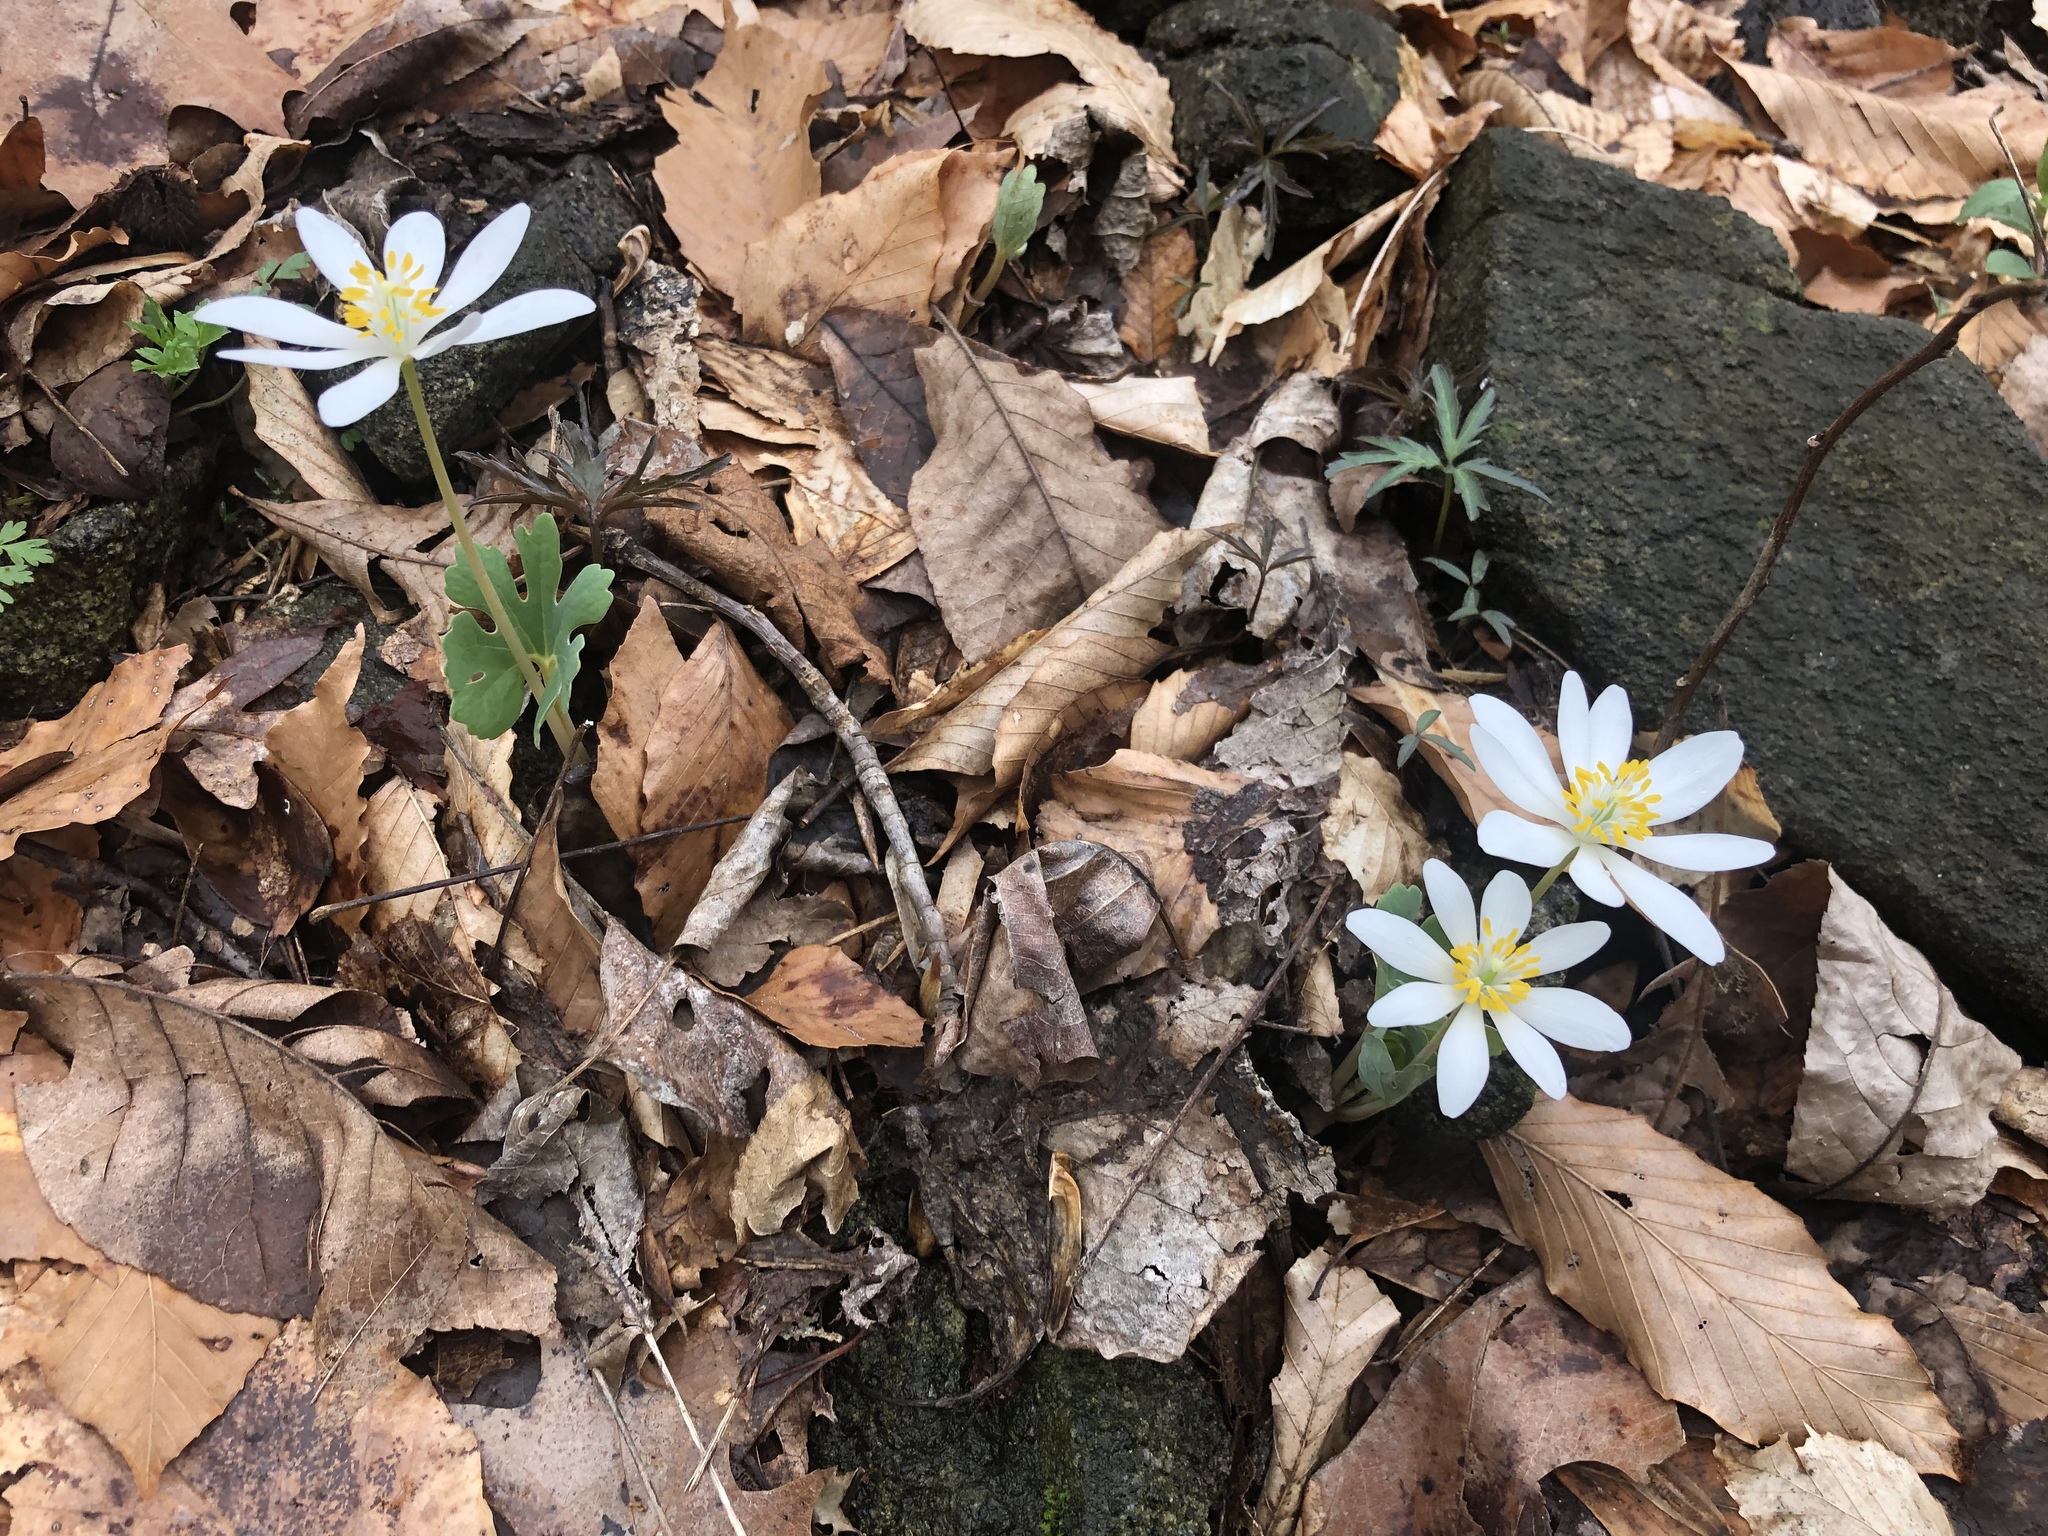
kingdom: Plantae
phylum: Tracheophyta
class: Magnoliopsida
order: Ranunculales
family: Papaveraceae
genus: Sanguinaria
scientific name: Sanguinaria canadensis
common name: Bloodroot
